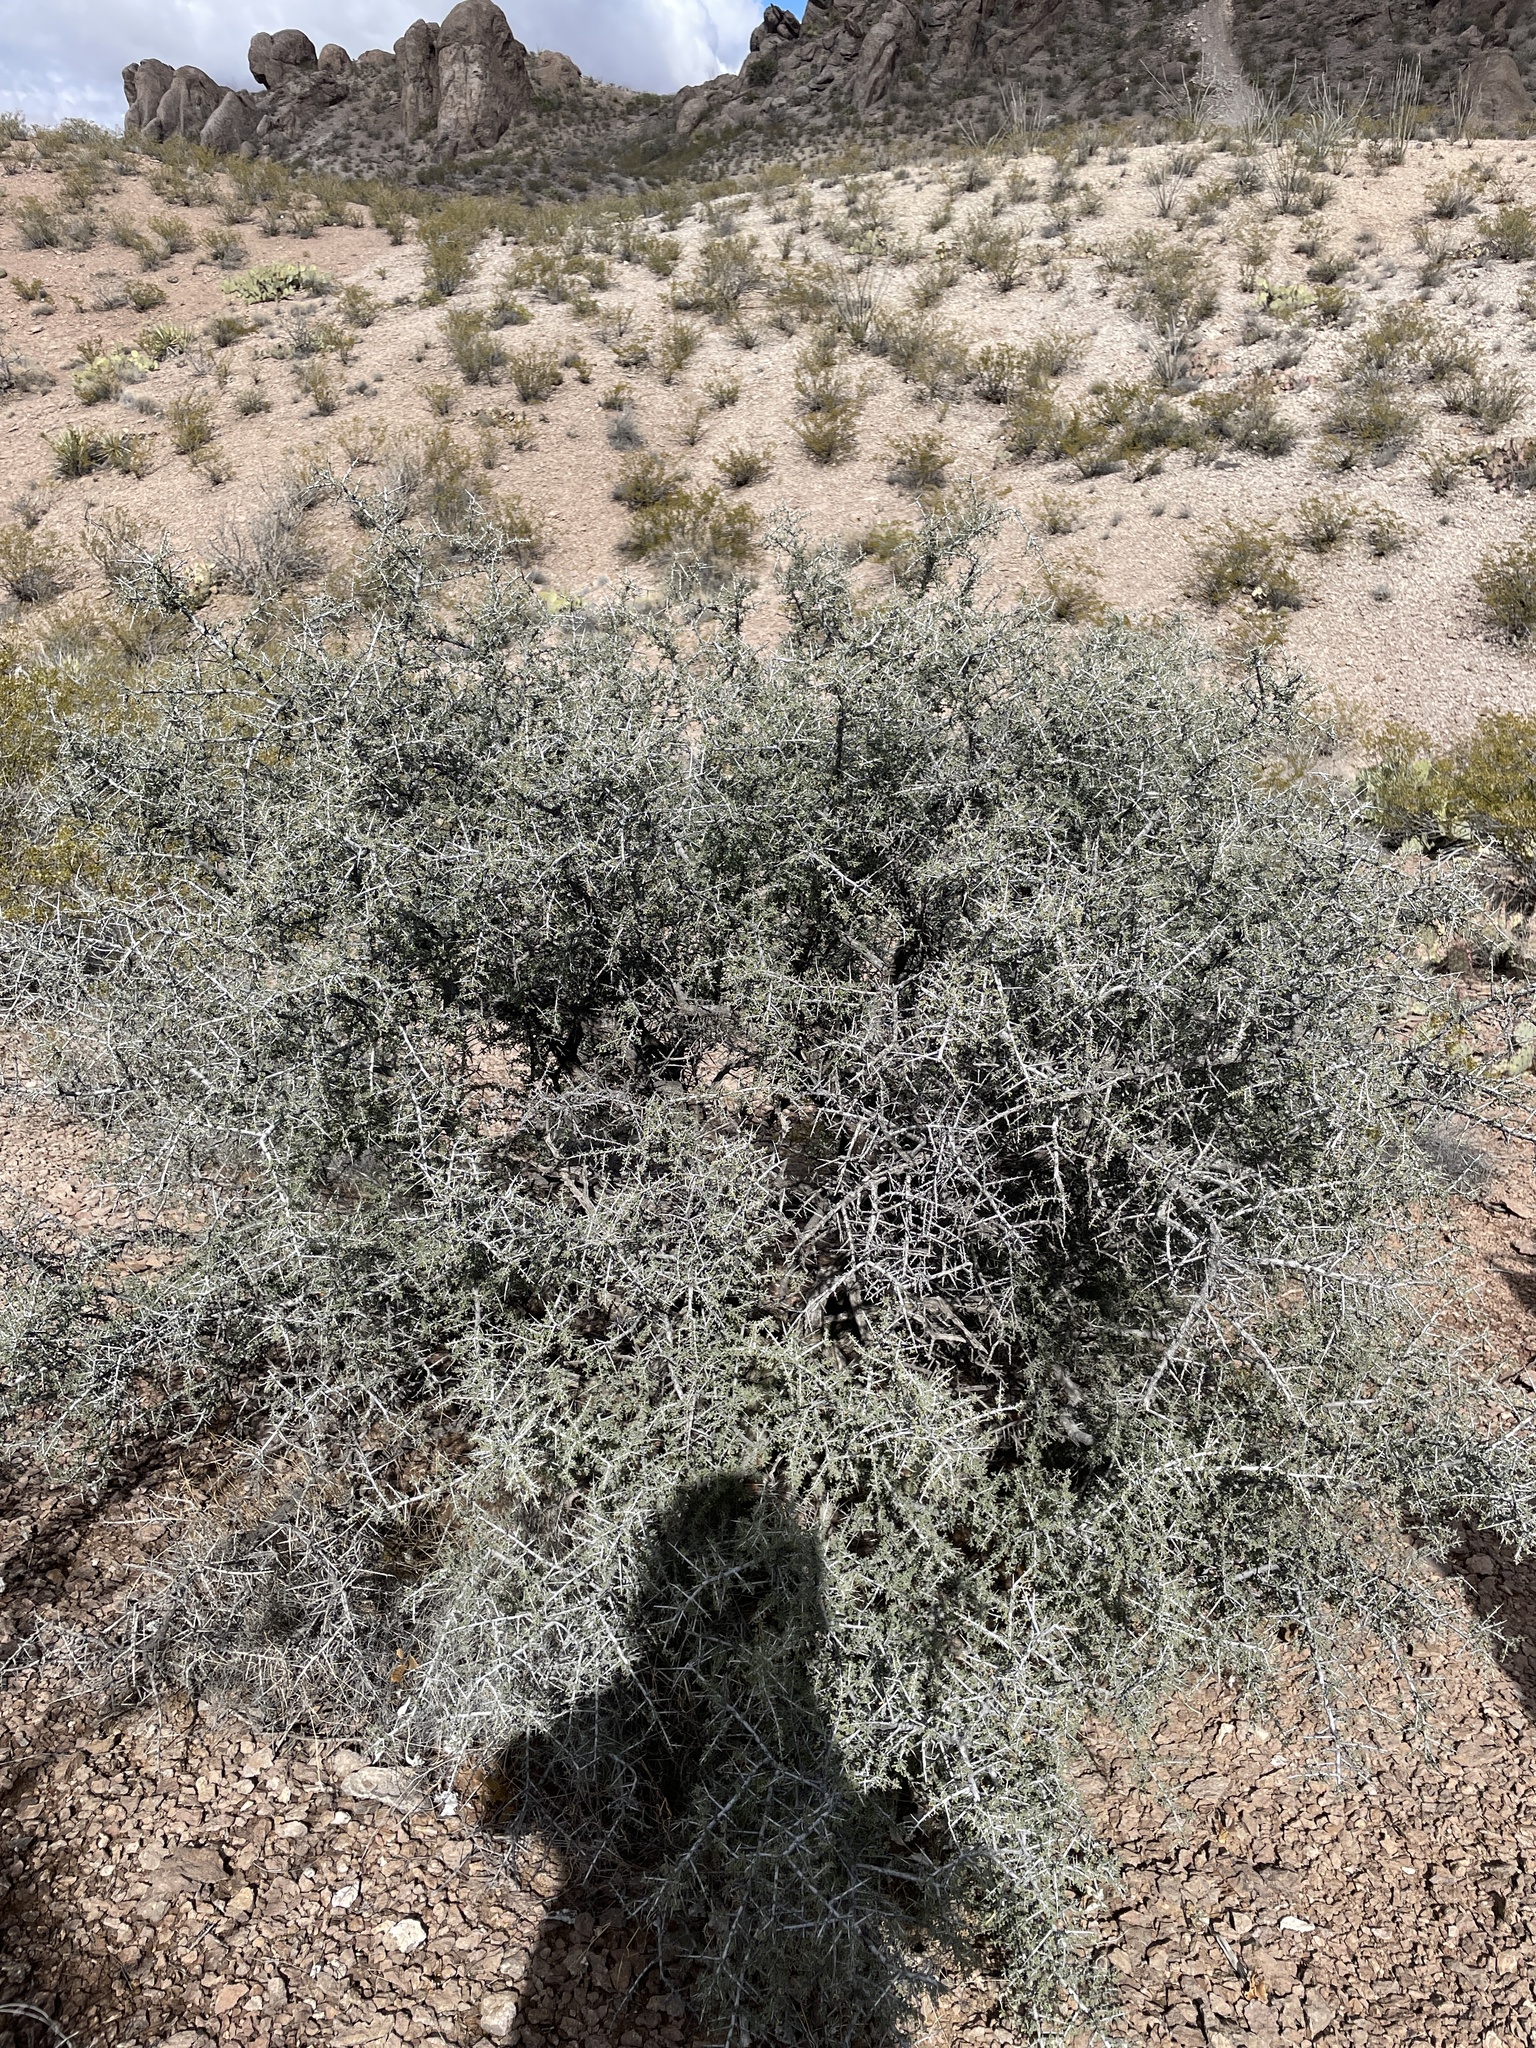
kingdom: Plantae
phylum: Tracheophyta
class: Magnoliopsida
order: Rosales
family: Rhamnaceae
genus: Condalia
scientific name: Condalia warnockii
